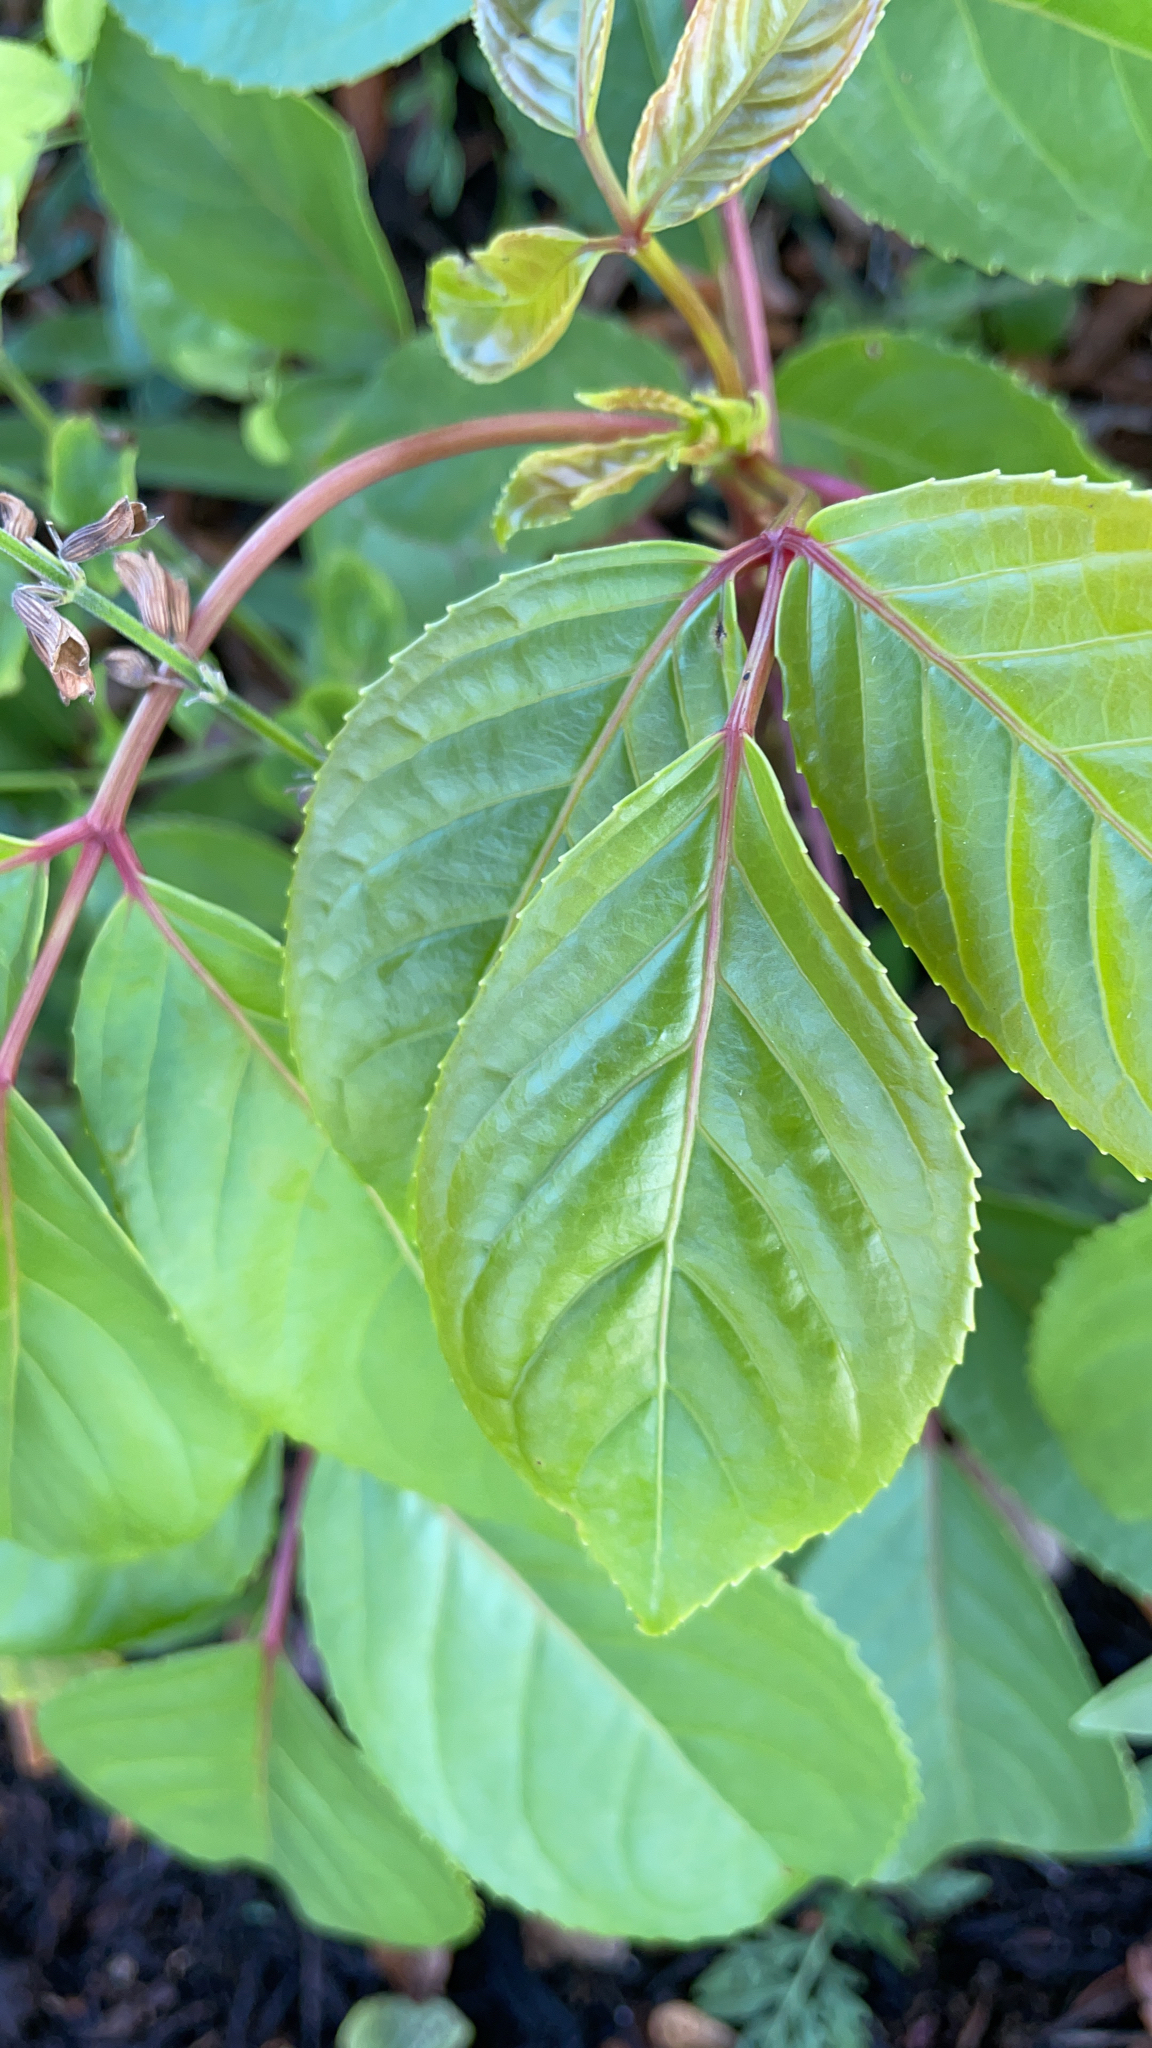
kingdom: Plantae
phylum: Tracheophyta
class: Magnoliopsida
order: Malpighiales
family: Phyllanthaceae
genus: Bischofia
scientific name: Bischofia javanica
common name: Javanese bishopwood
